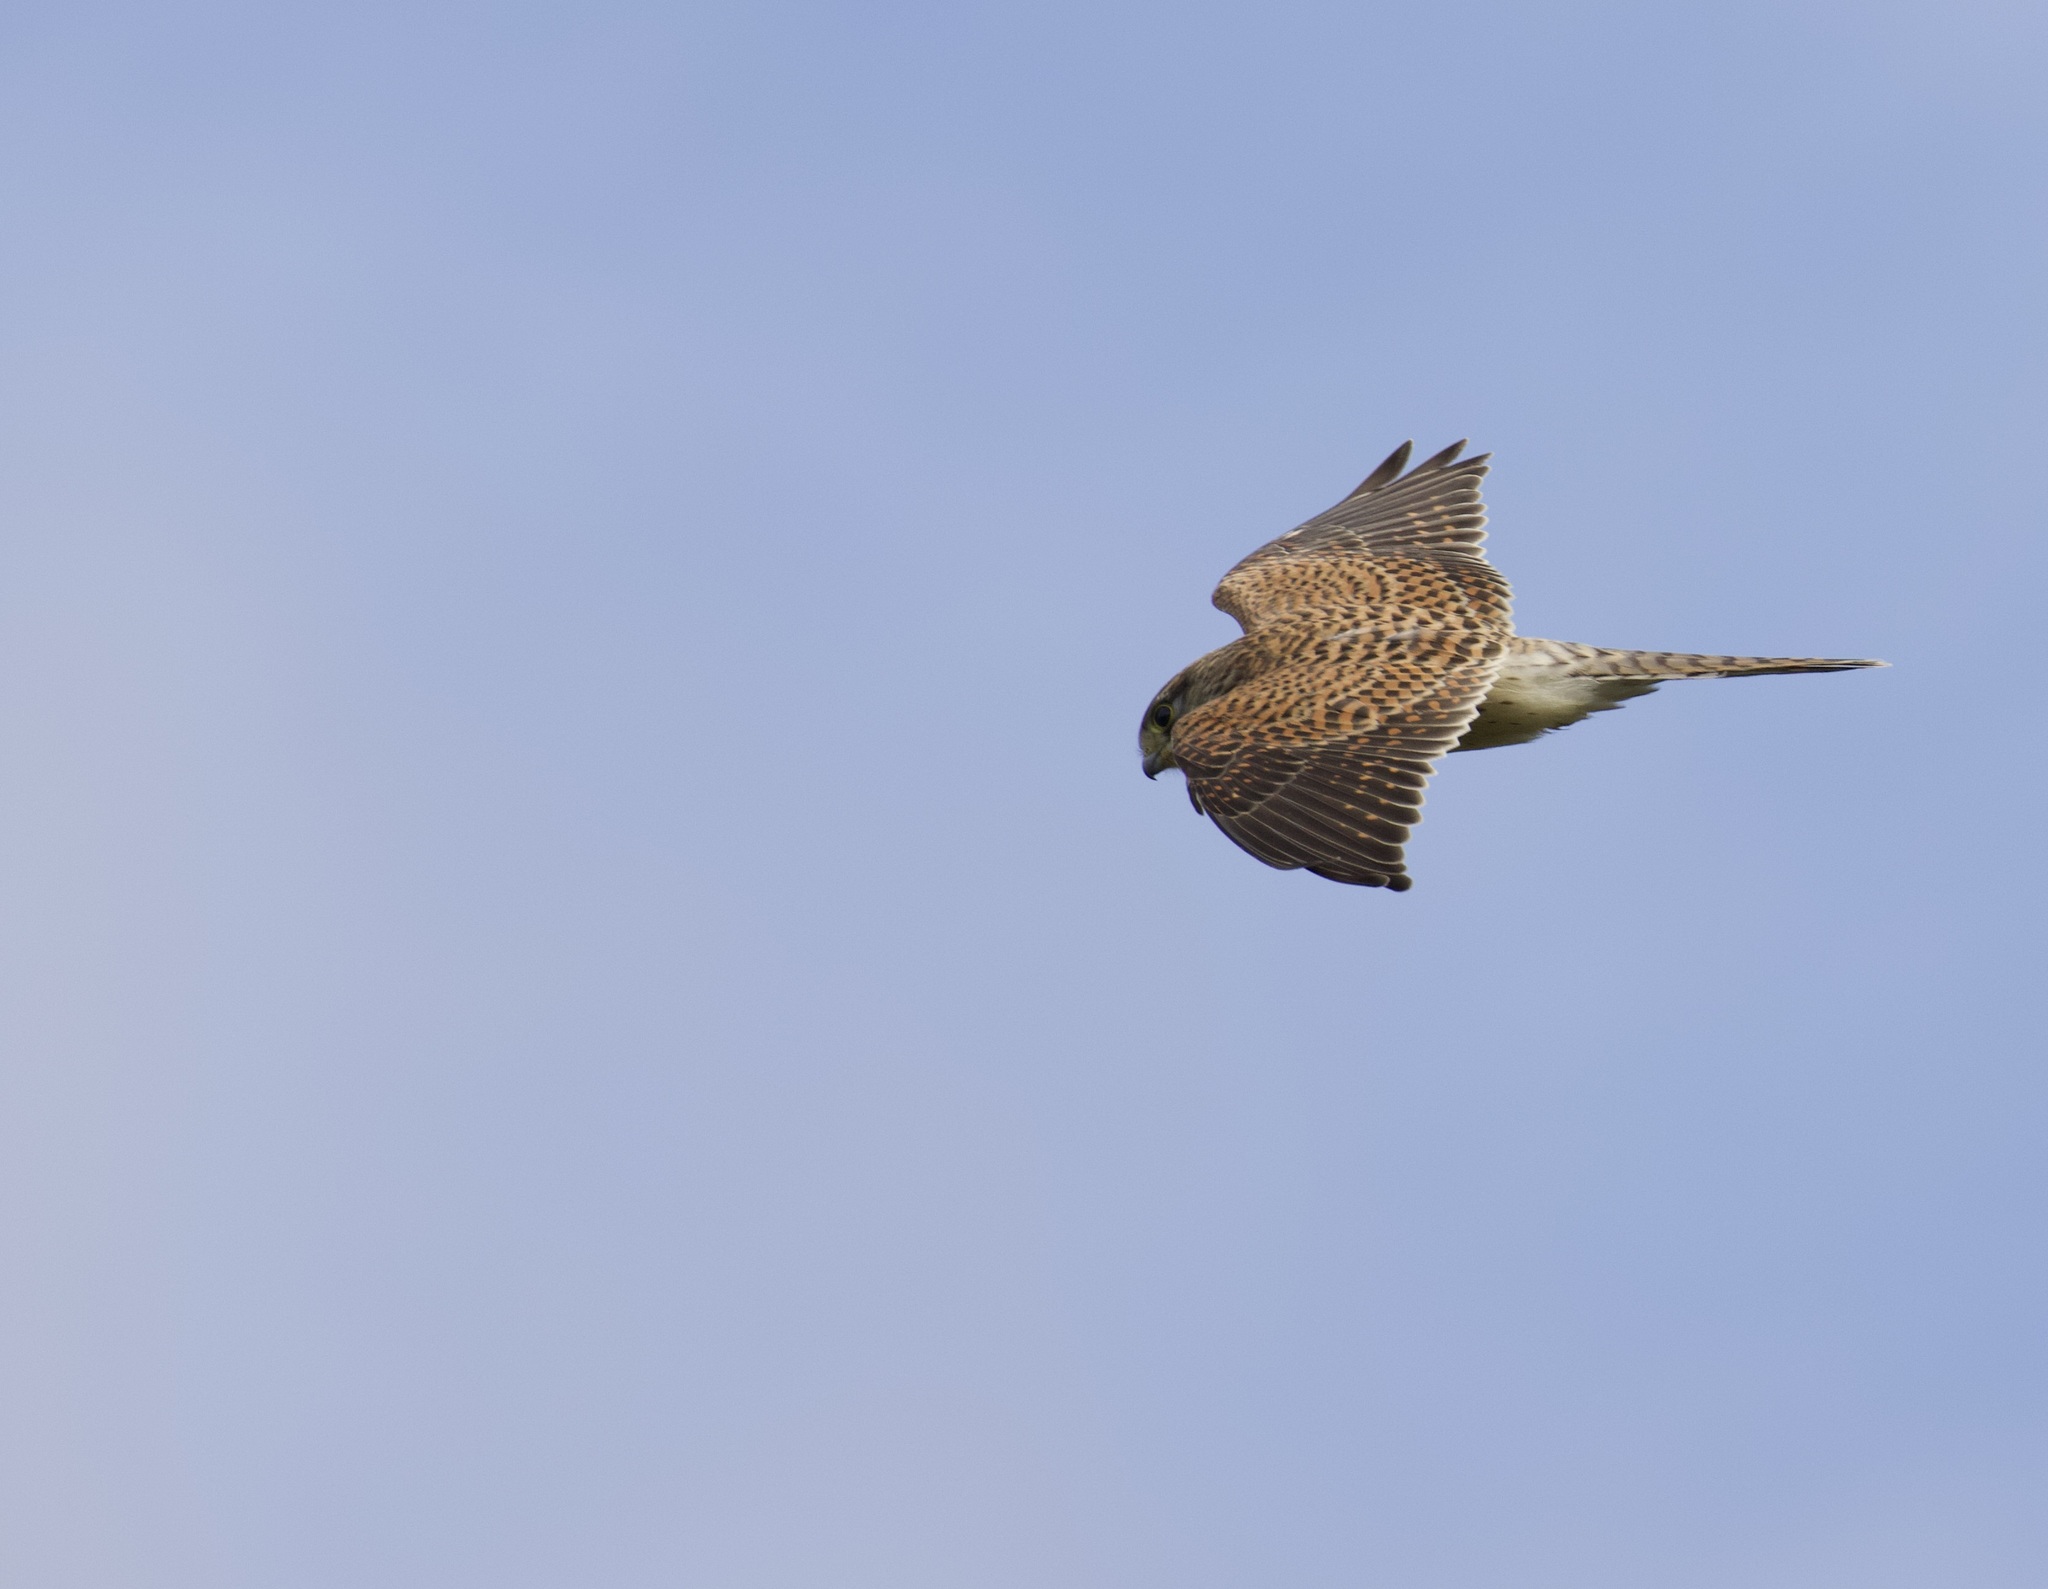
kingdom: Animalia
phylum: Chordata
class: Aves
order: Falconiformes
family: Falconidae
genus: Falco
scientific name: Falco tinnunculus
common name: Common kestrel
